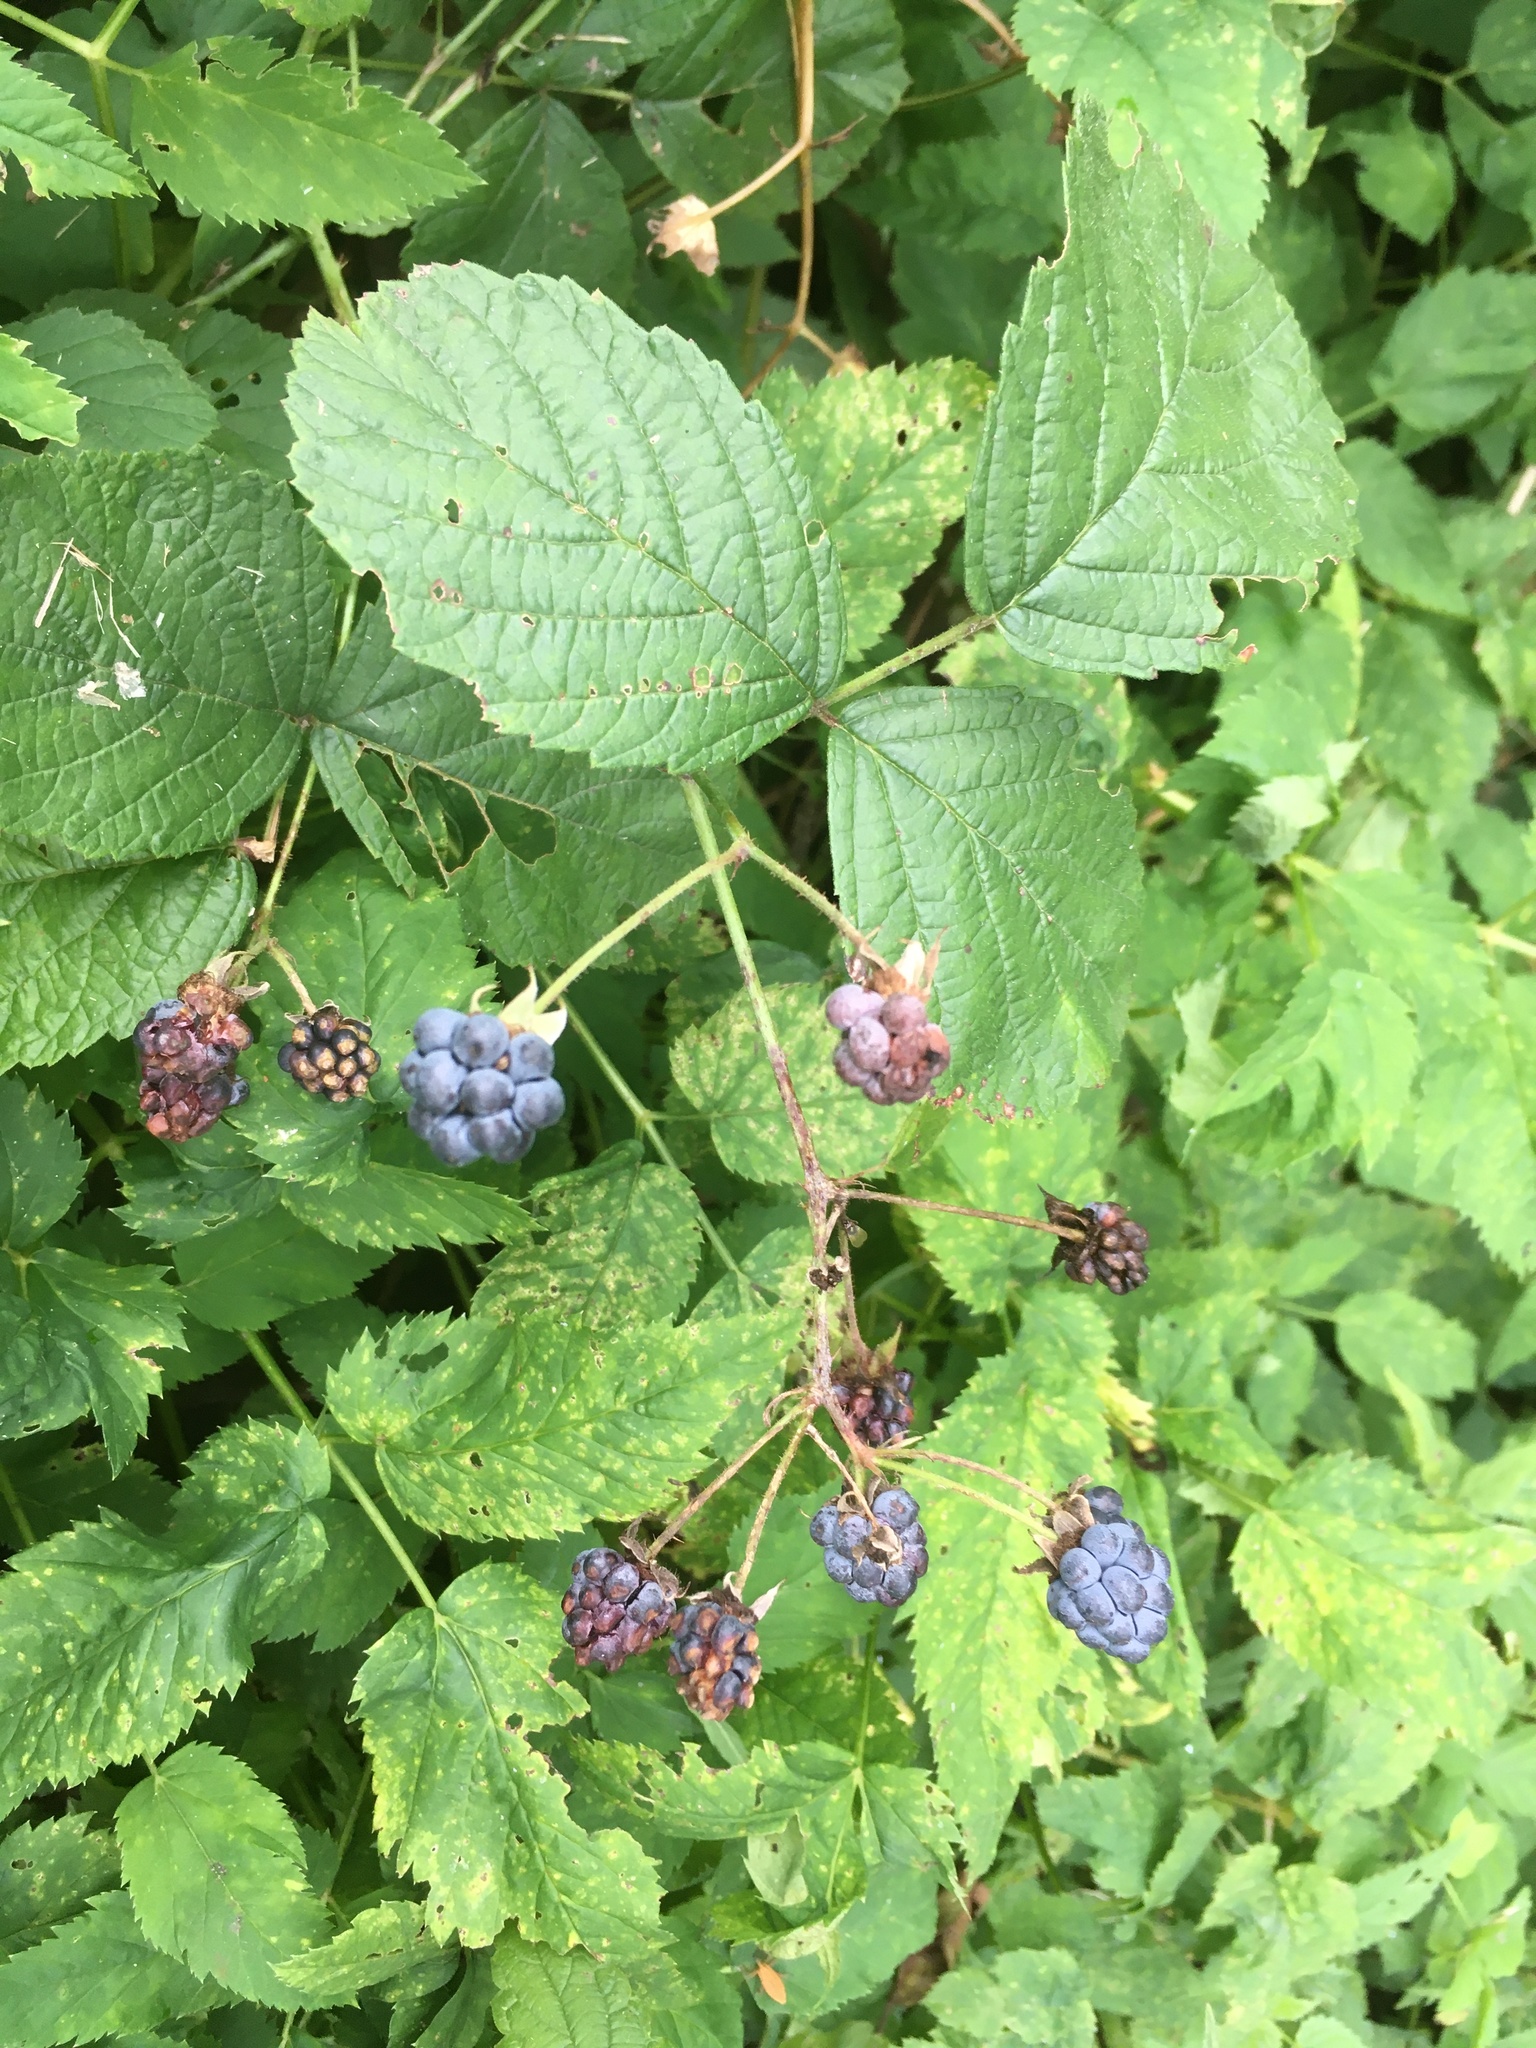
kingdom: Plantae
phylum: Tracheophyta
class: Magnoliopsida
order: Rosales
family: Rosaceae
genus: Rubus
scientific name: Rubus caesius
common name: Dewberry
